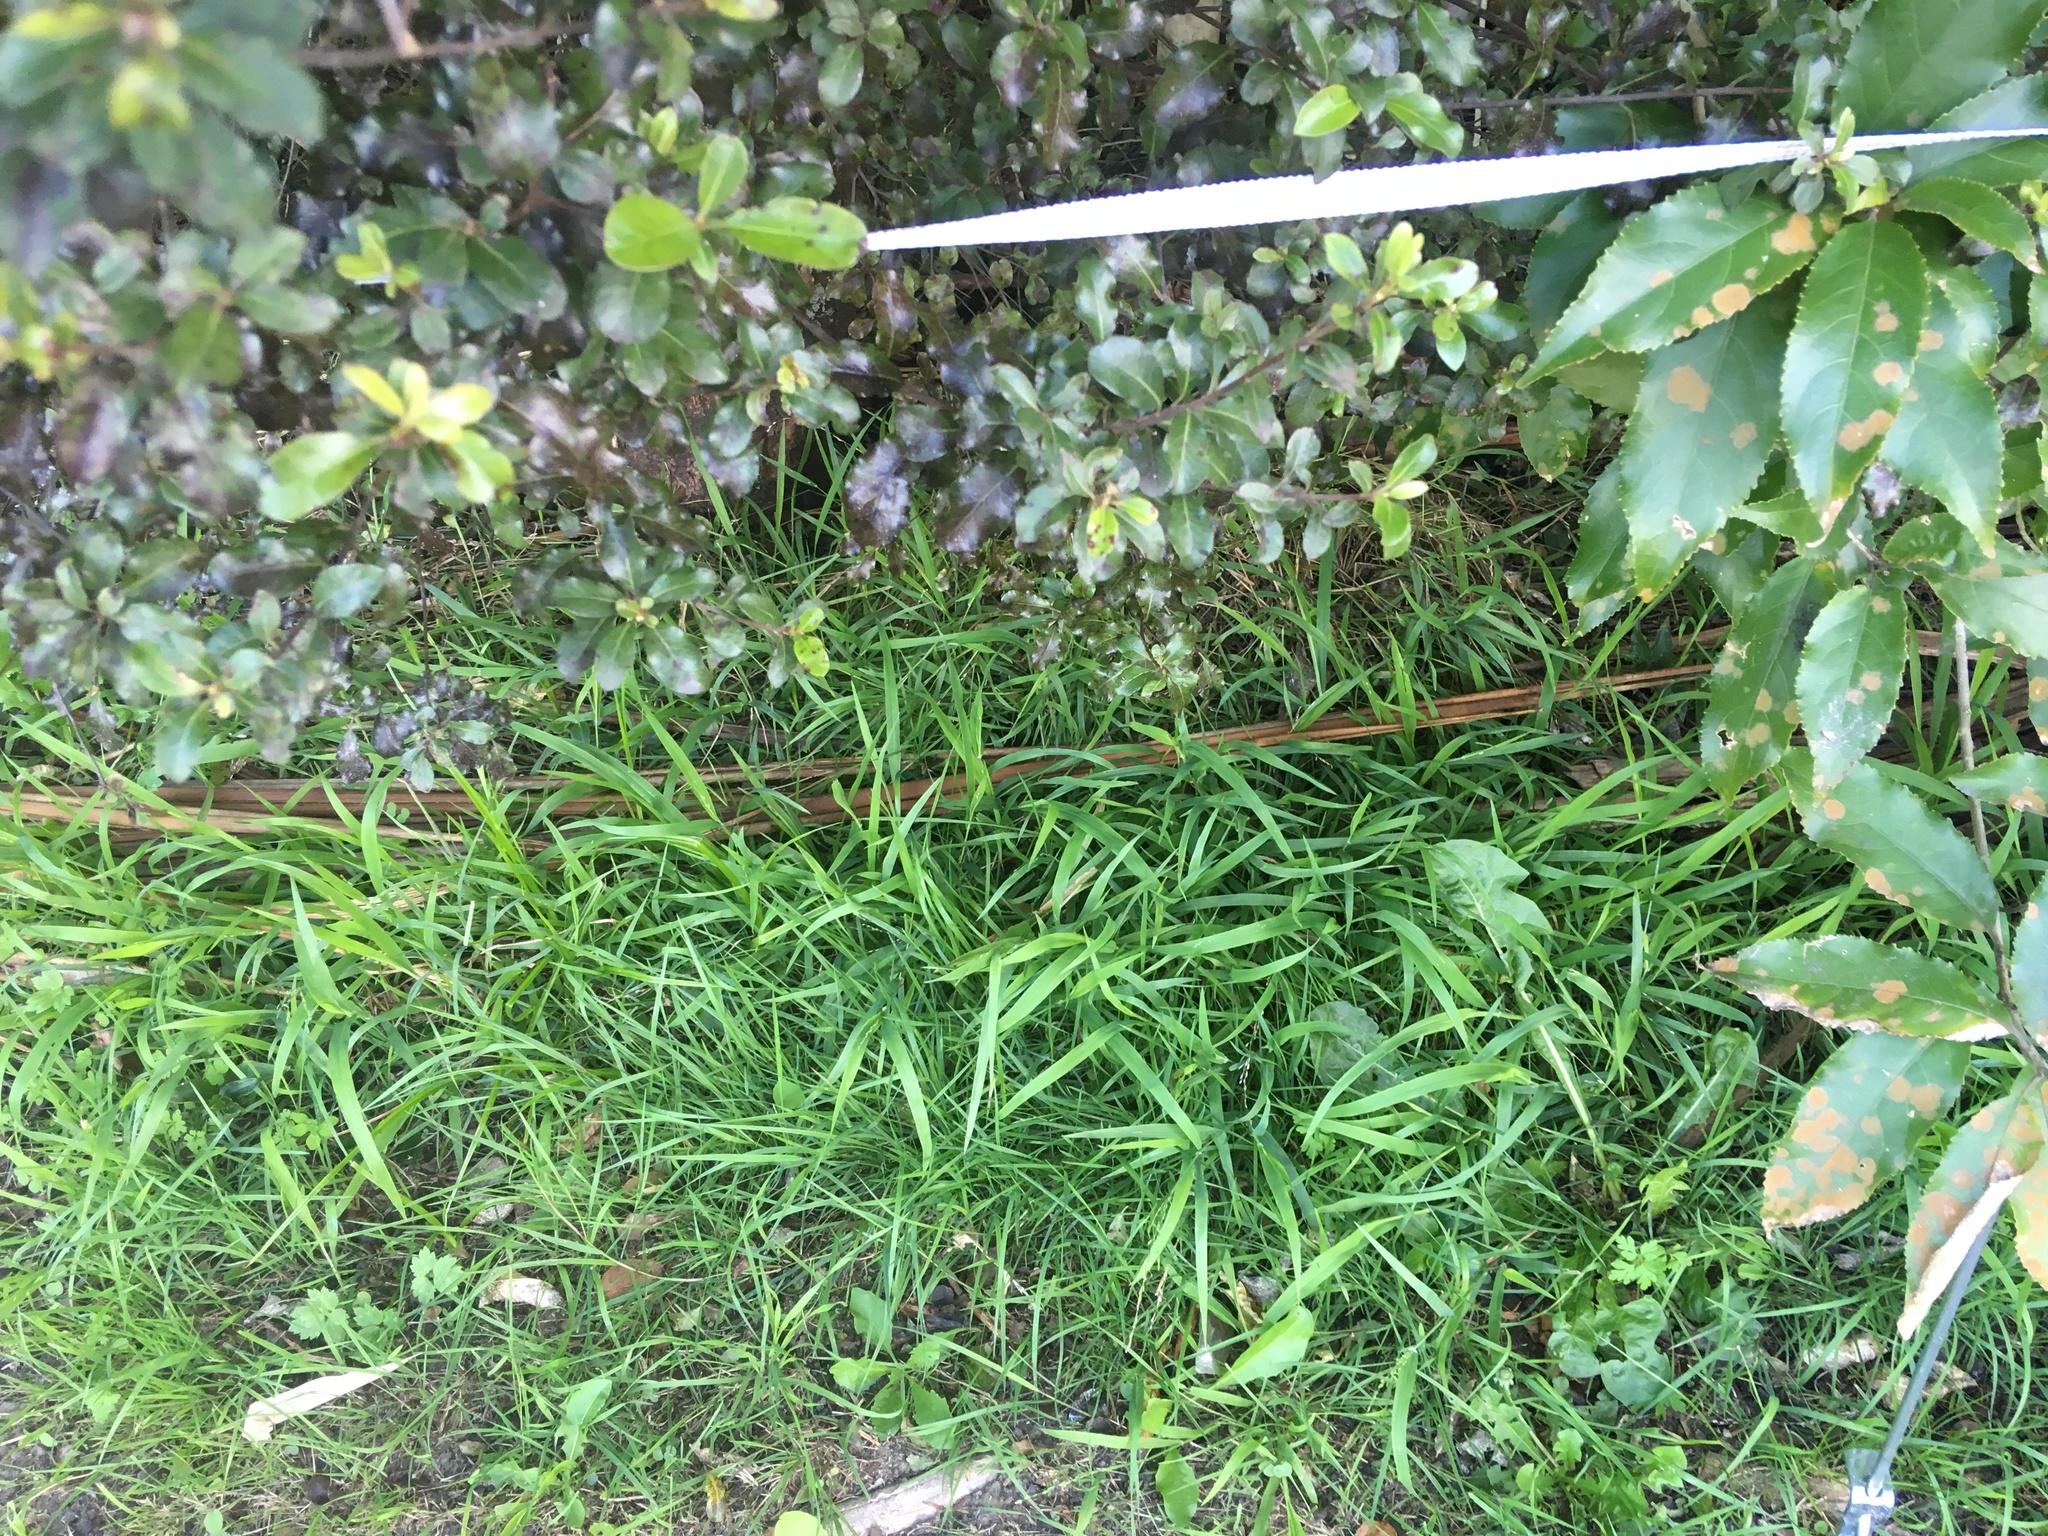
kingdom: Plantae
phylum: Tracheophyta
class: Liliopsida
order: Poales
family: Poaceae
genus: Ehrharta
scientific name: Ehrharta erecta
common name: Panic veldtgrass
